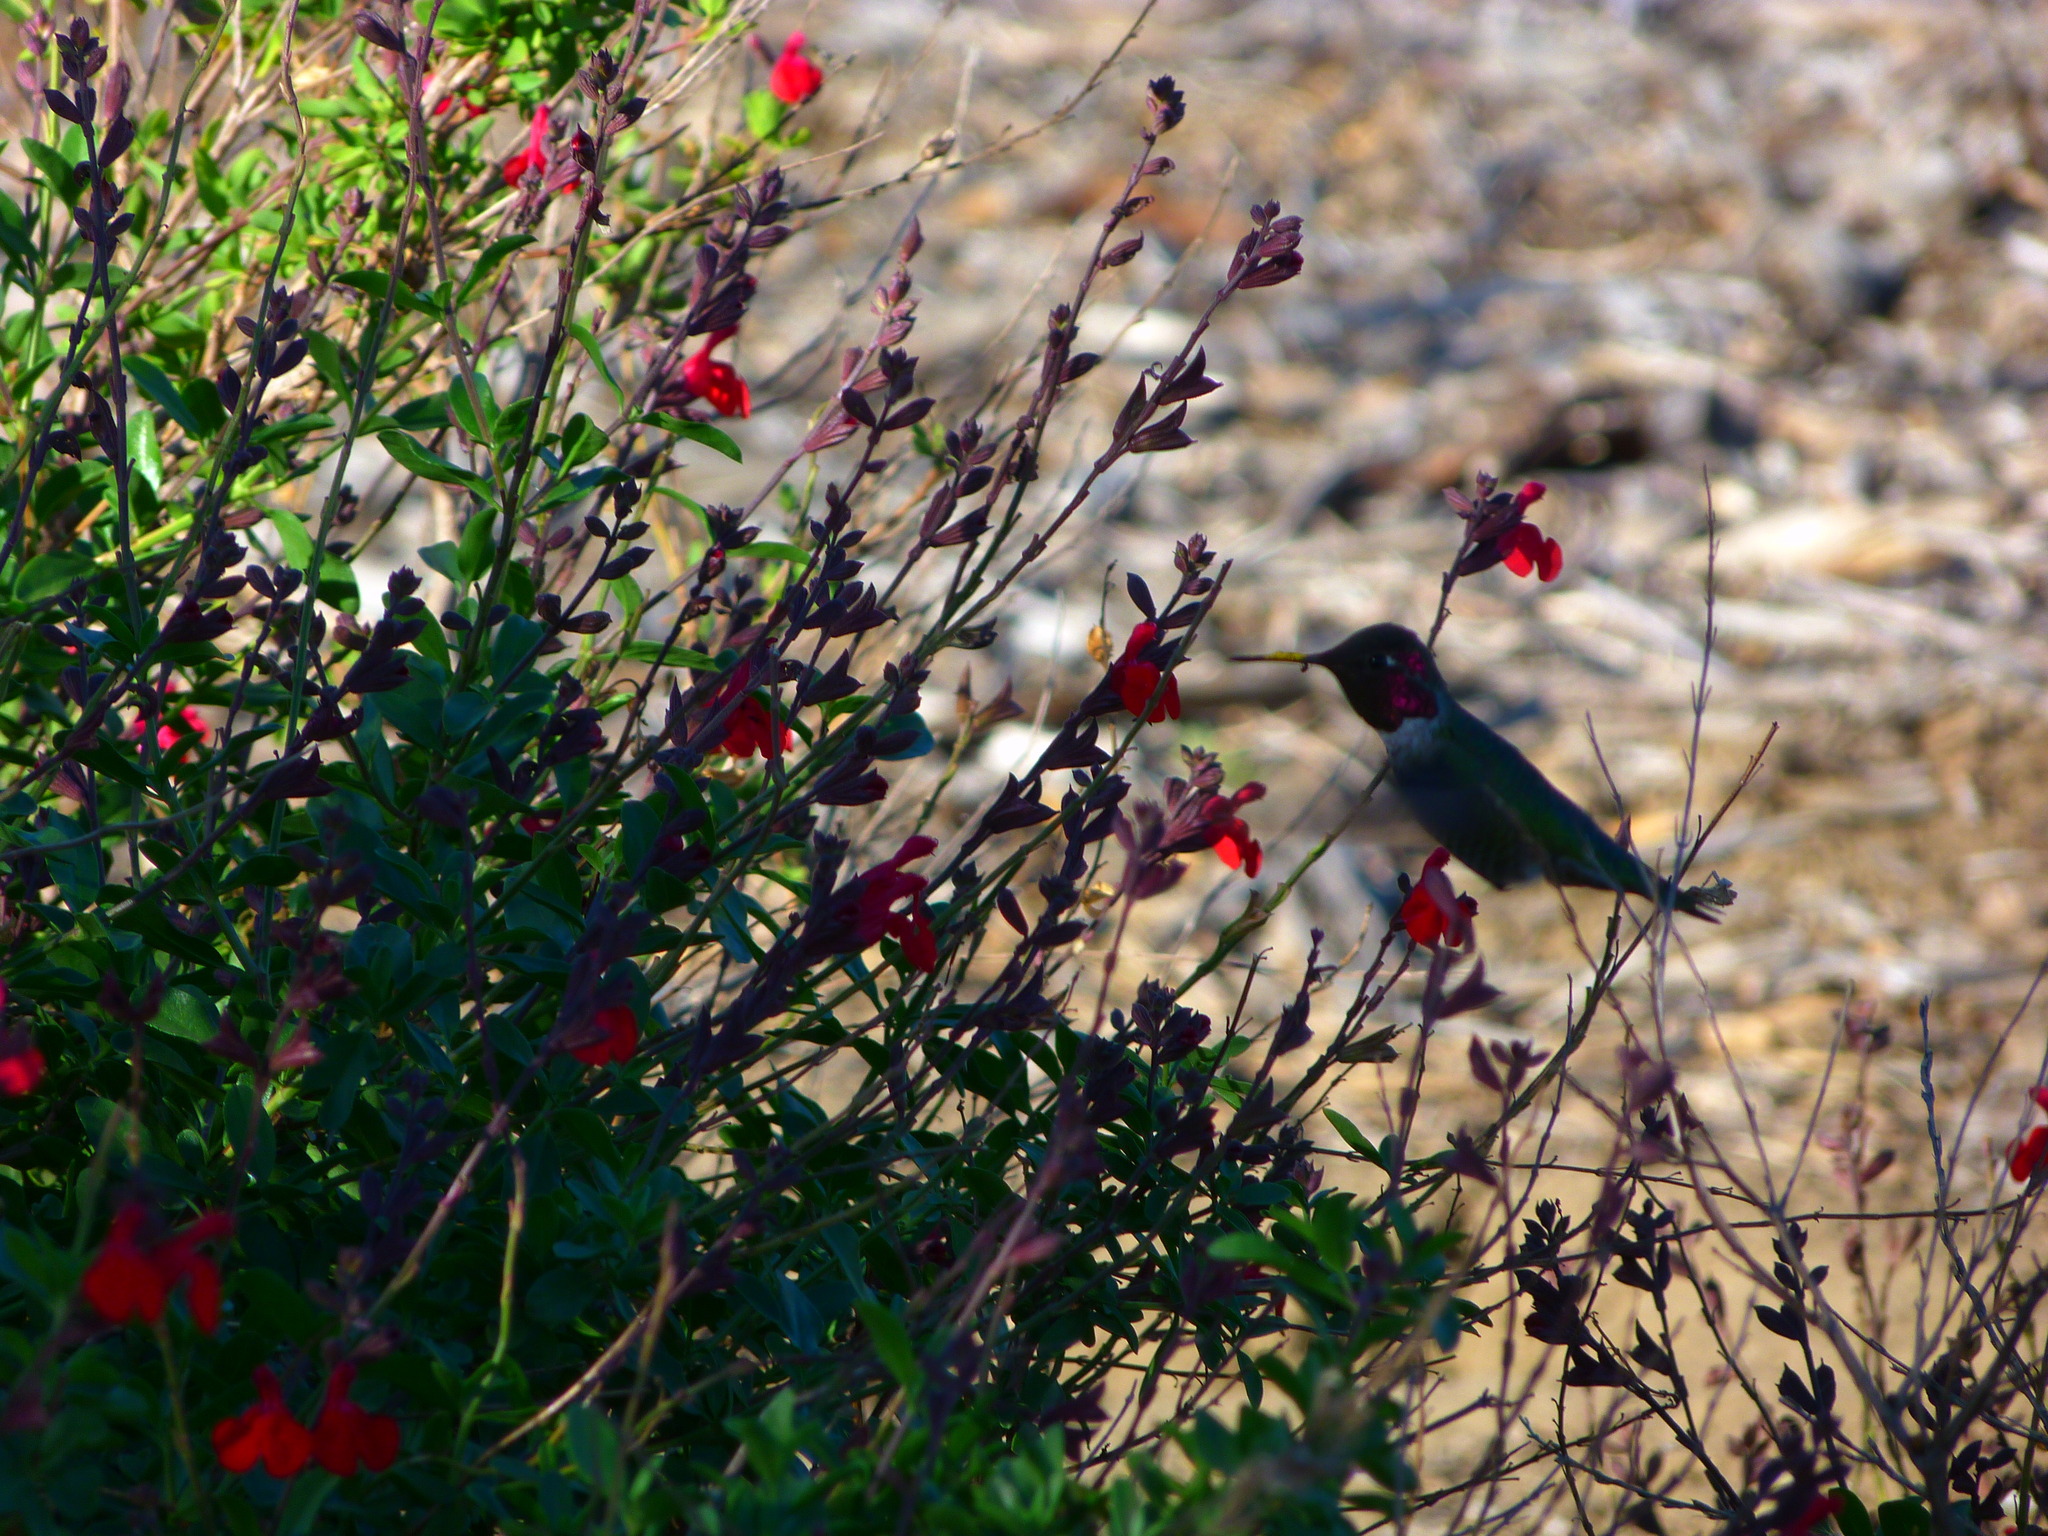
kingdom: Animalia
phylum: Chordata
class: Aves
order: Apodiformes
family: Trochilidae
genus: Calypte
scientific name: Calypte anna
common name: Anna's hummingbird
